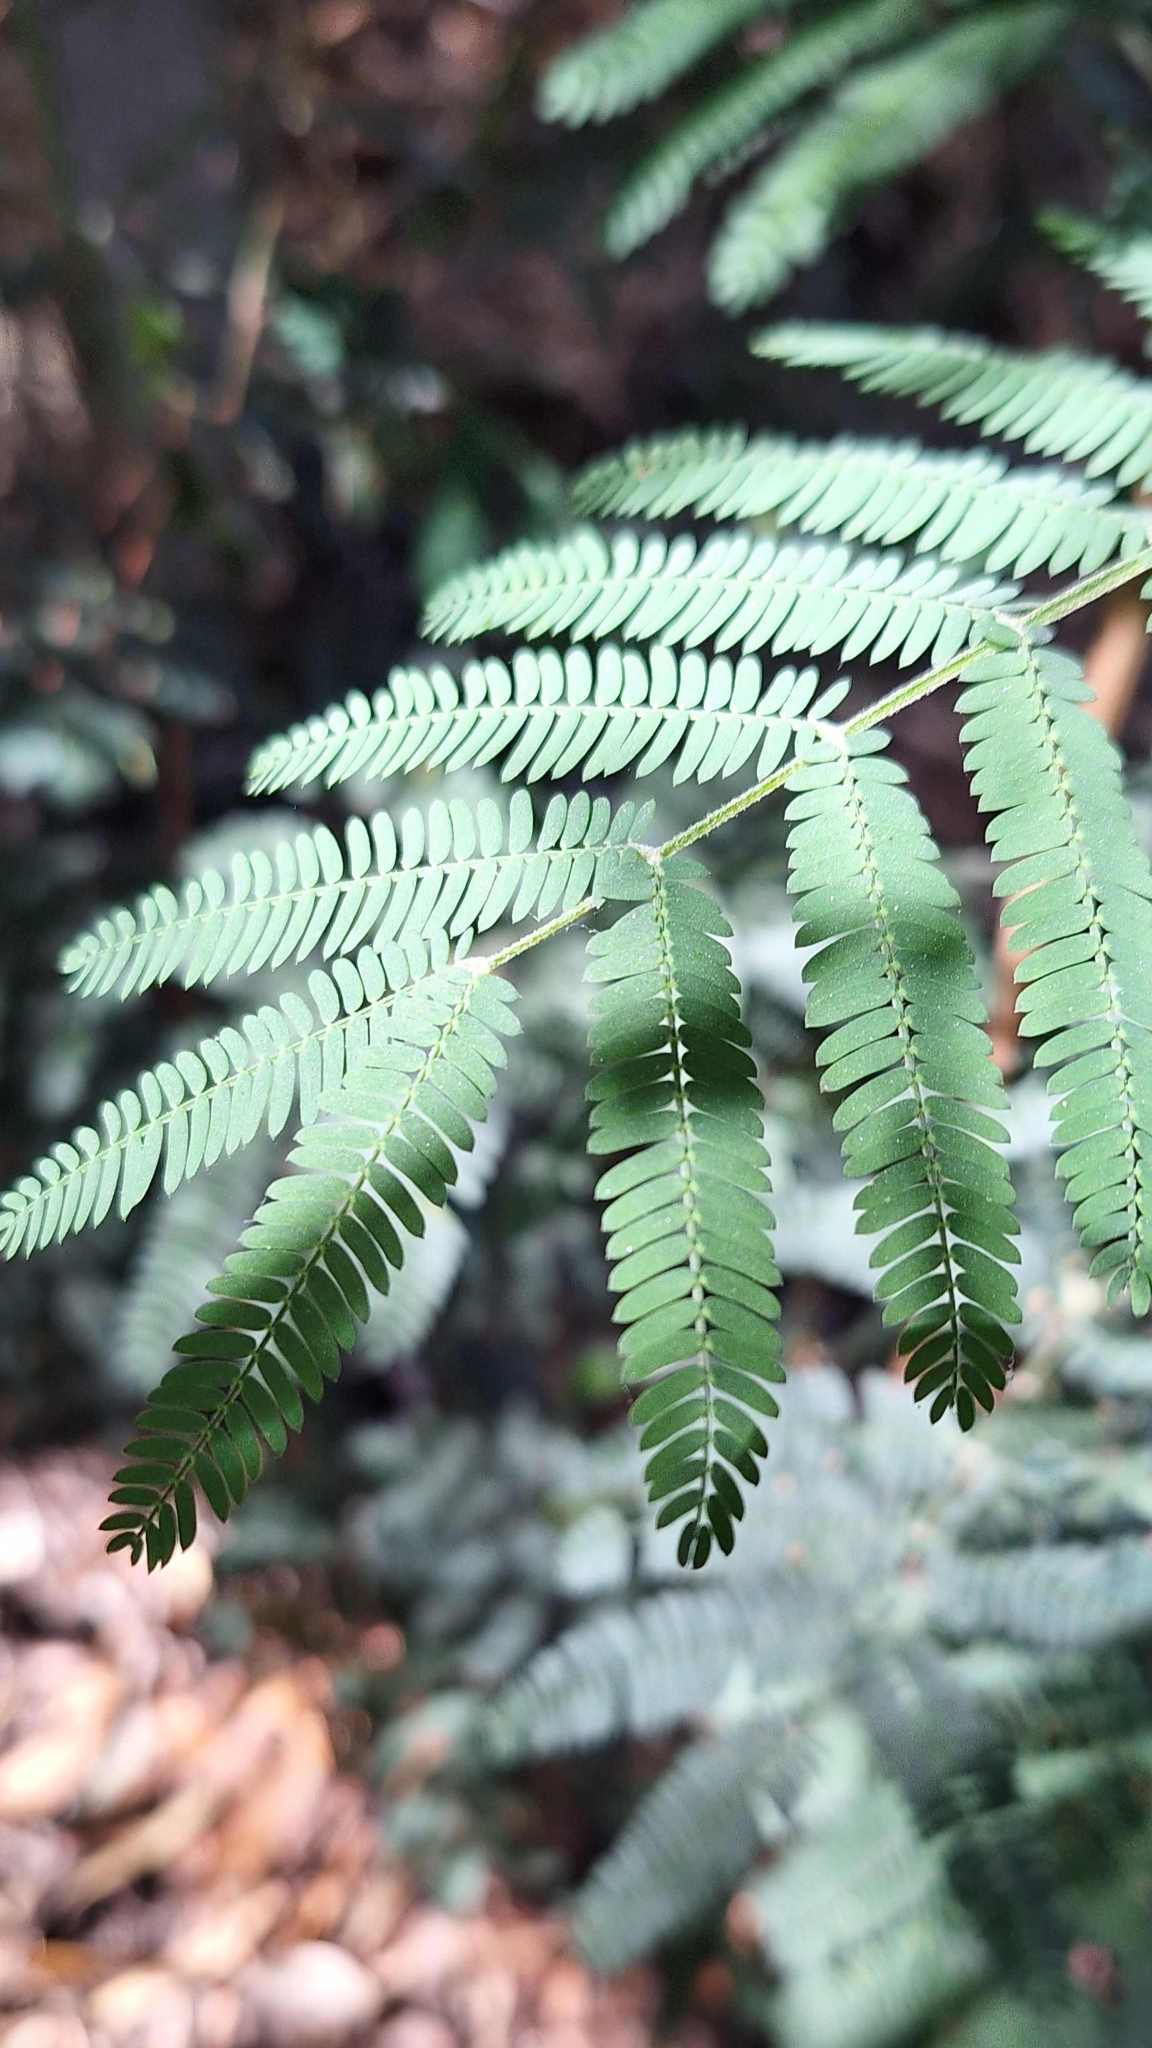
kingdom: Plantae
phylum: Tracheophyta
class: Magnoliopsida
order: Fabales
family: Fabaceae
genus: Acacia
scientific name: Acacia melanoxylon
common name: Blackwood
